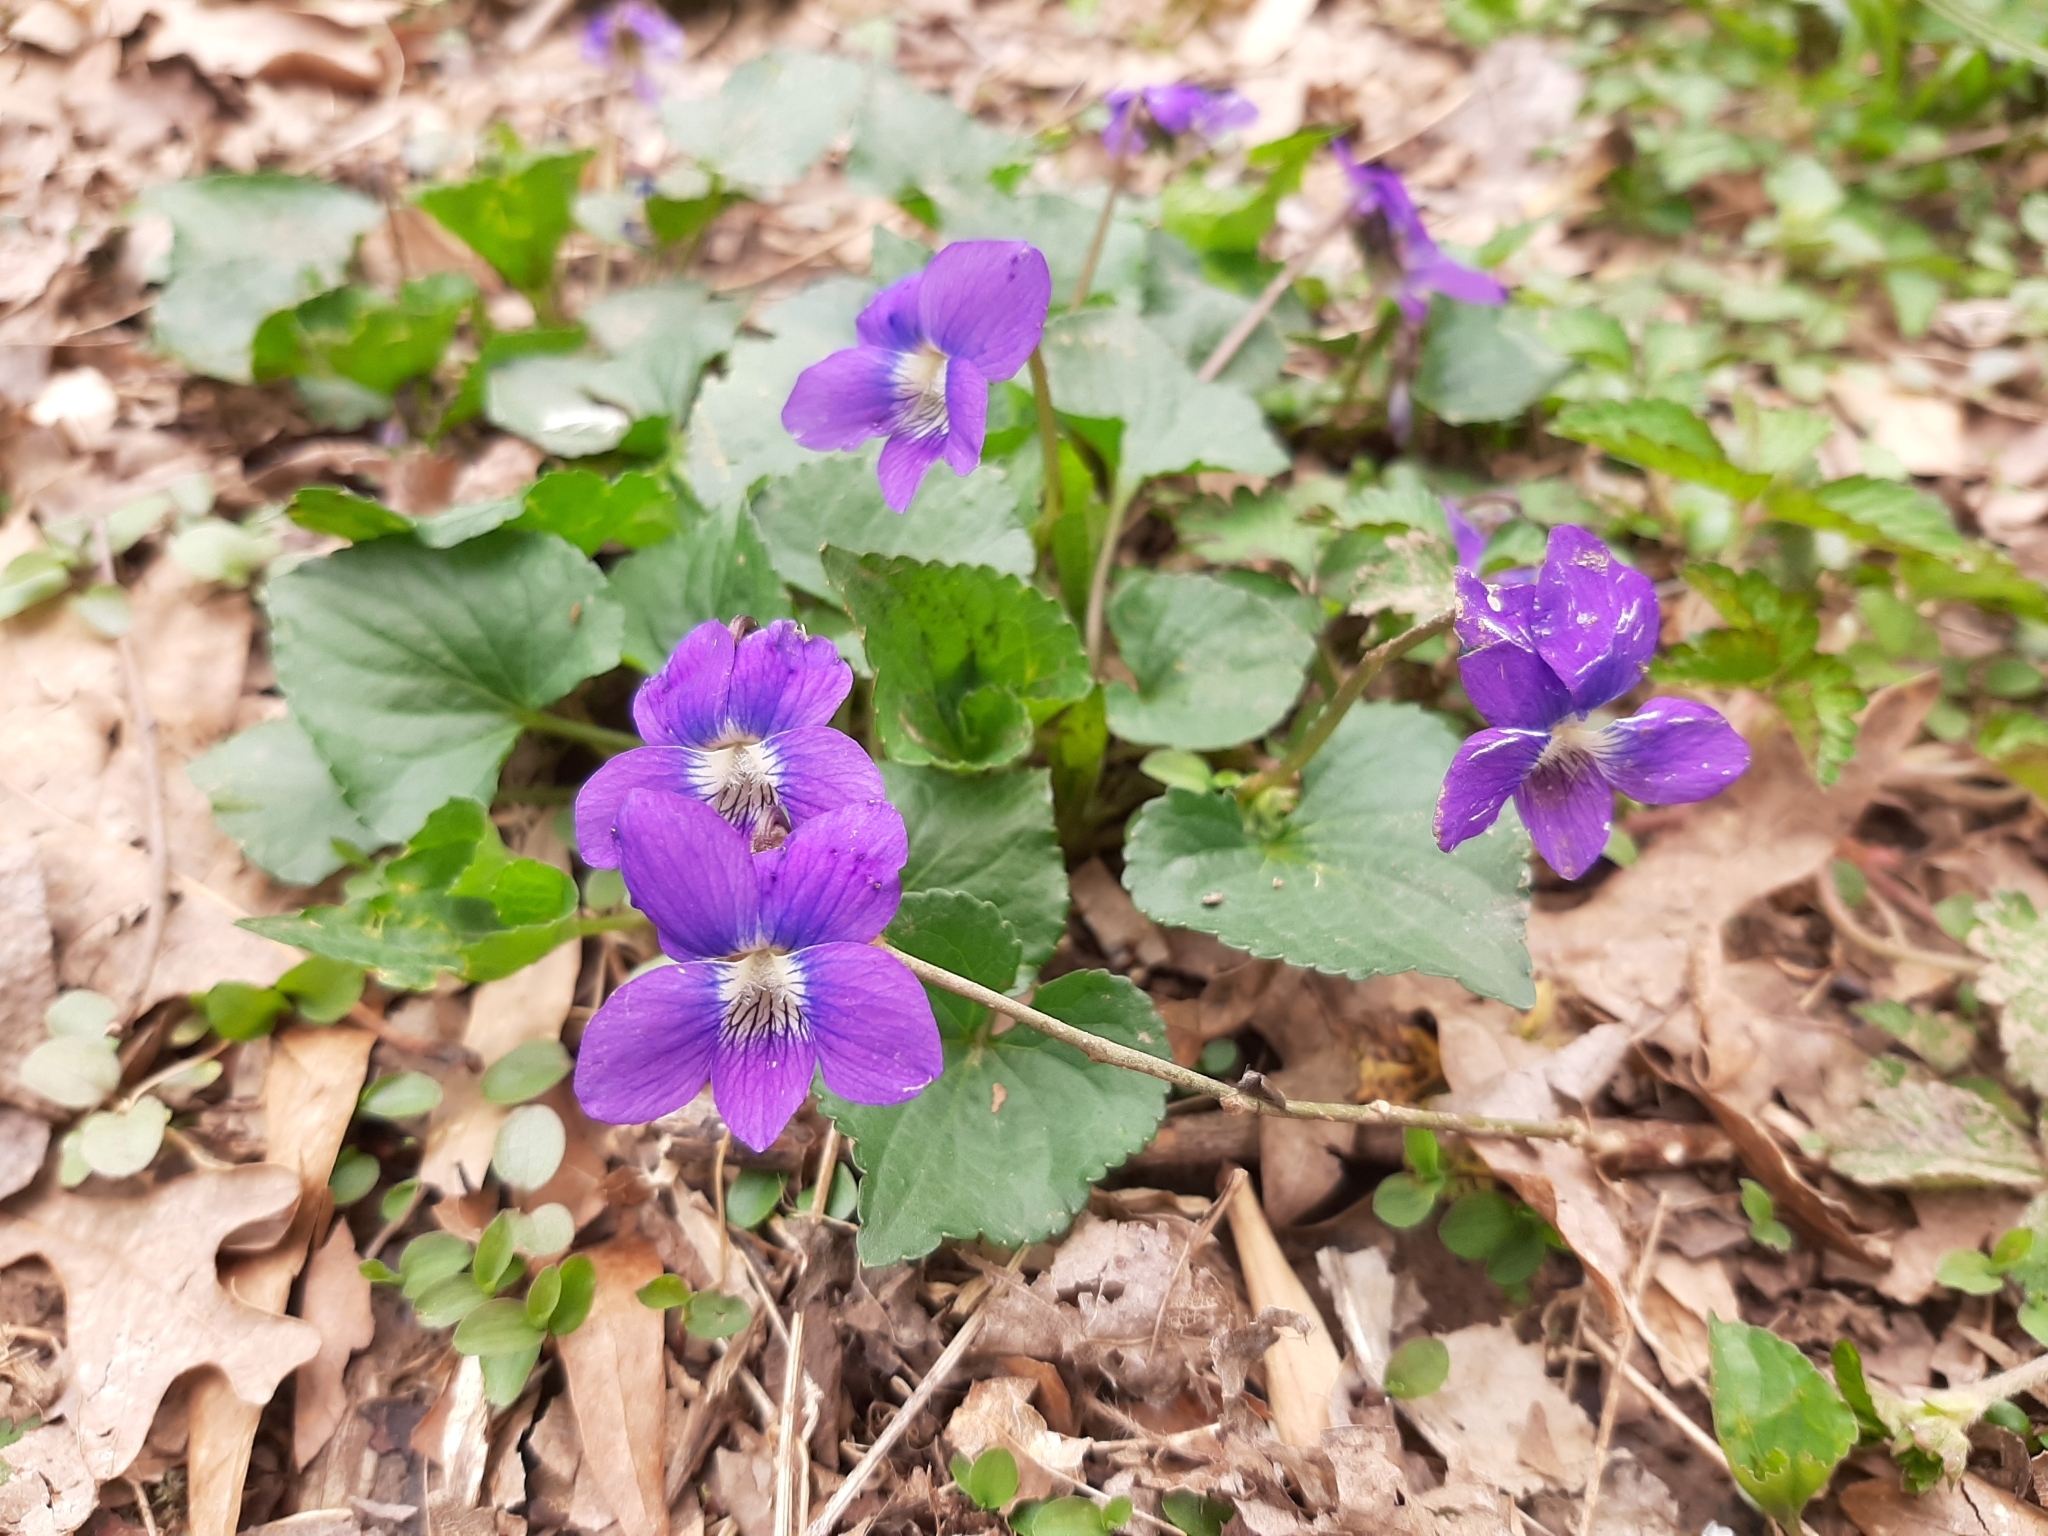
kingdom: Plantae
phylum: Tracheophyta
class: Magnoliopsida
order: Malpighiales
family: Violaceae
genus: Viola
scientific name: Viola sororia
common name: Dooryard violet
